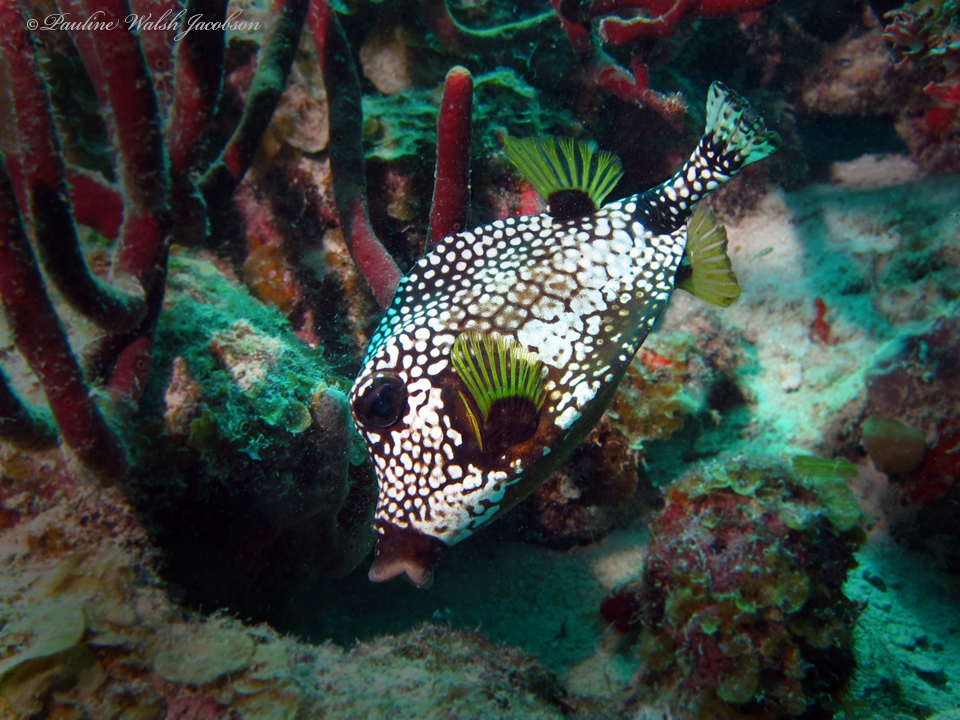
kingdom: Animalia
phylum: Chordata
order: Tetraodontiformes
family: Ostraciidae
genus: Lactophrys
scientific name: Lactophrys triqueter
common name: Smooth trunkfish
